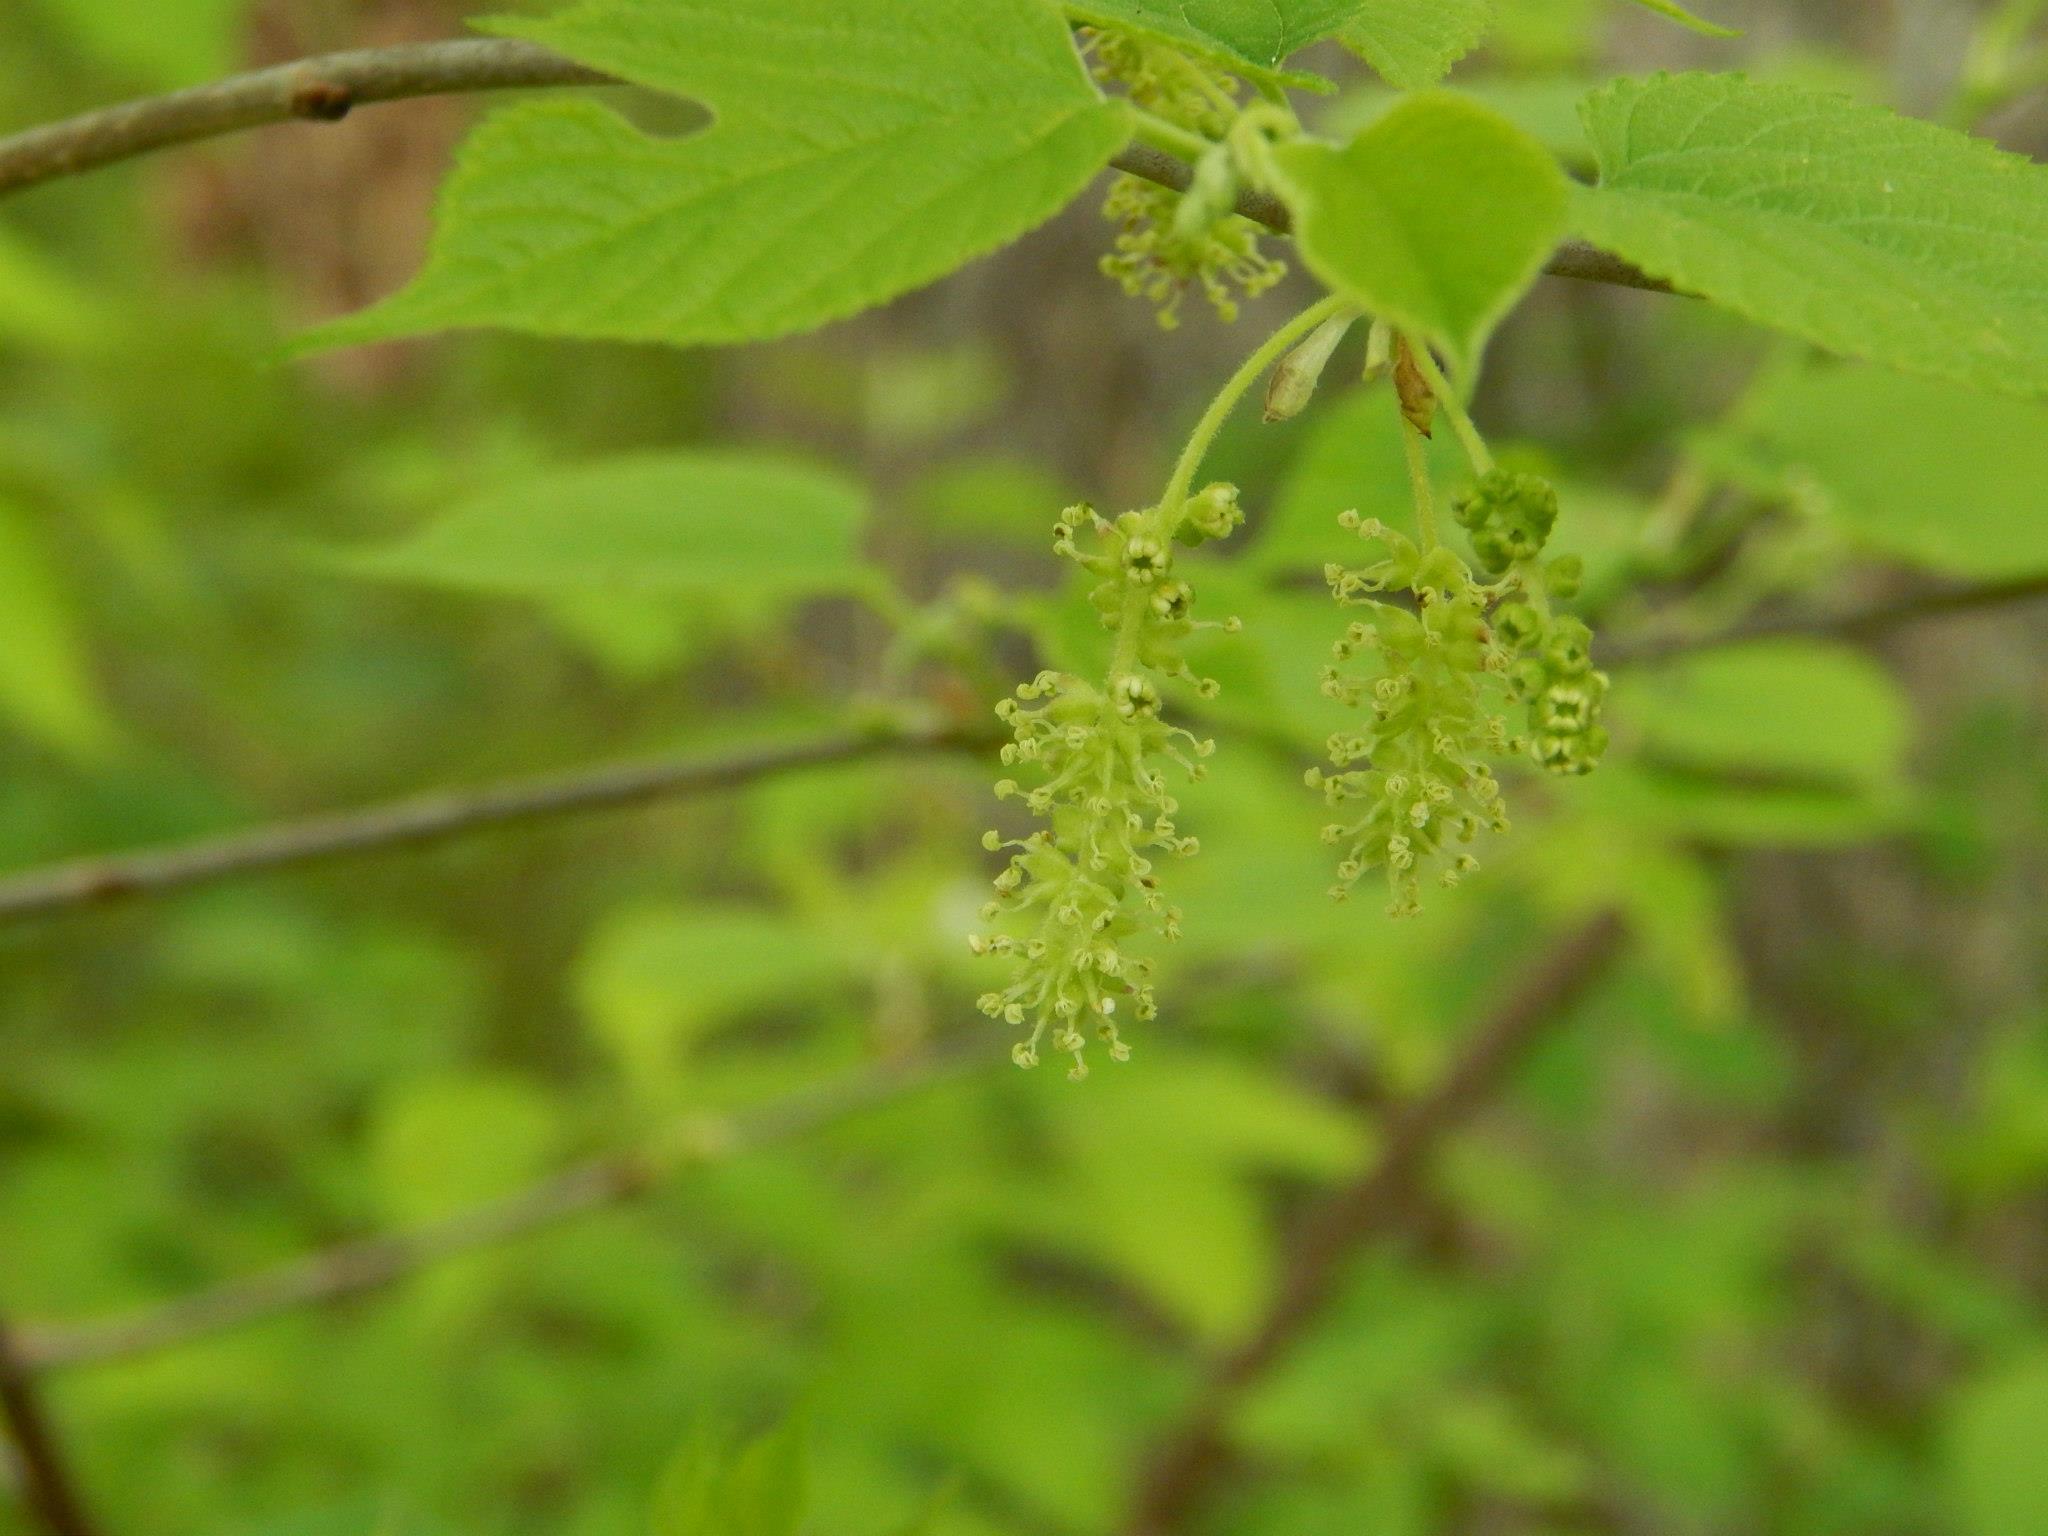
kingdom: Plantae
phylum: Tracheophyta
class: Magnoliopsida
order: Rosales
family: Moraceae
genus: Morus
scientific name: Morus rubra
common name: Red mulberry
